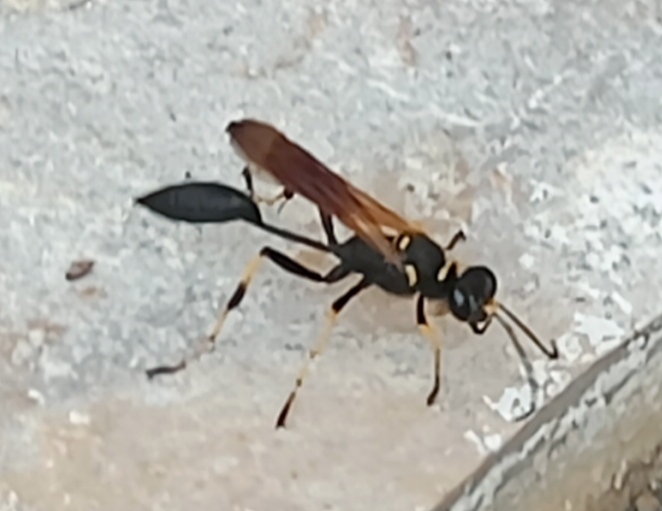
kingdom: Animalia
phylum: Arthropoda
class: Insecta
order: Hymenoptera
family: Sphecidae
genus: Sceliphron
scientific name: Sceliphron caementarium
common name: Mud dauber
